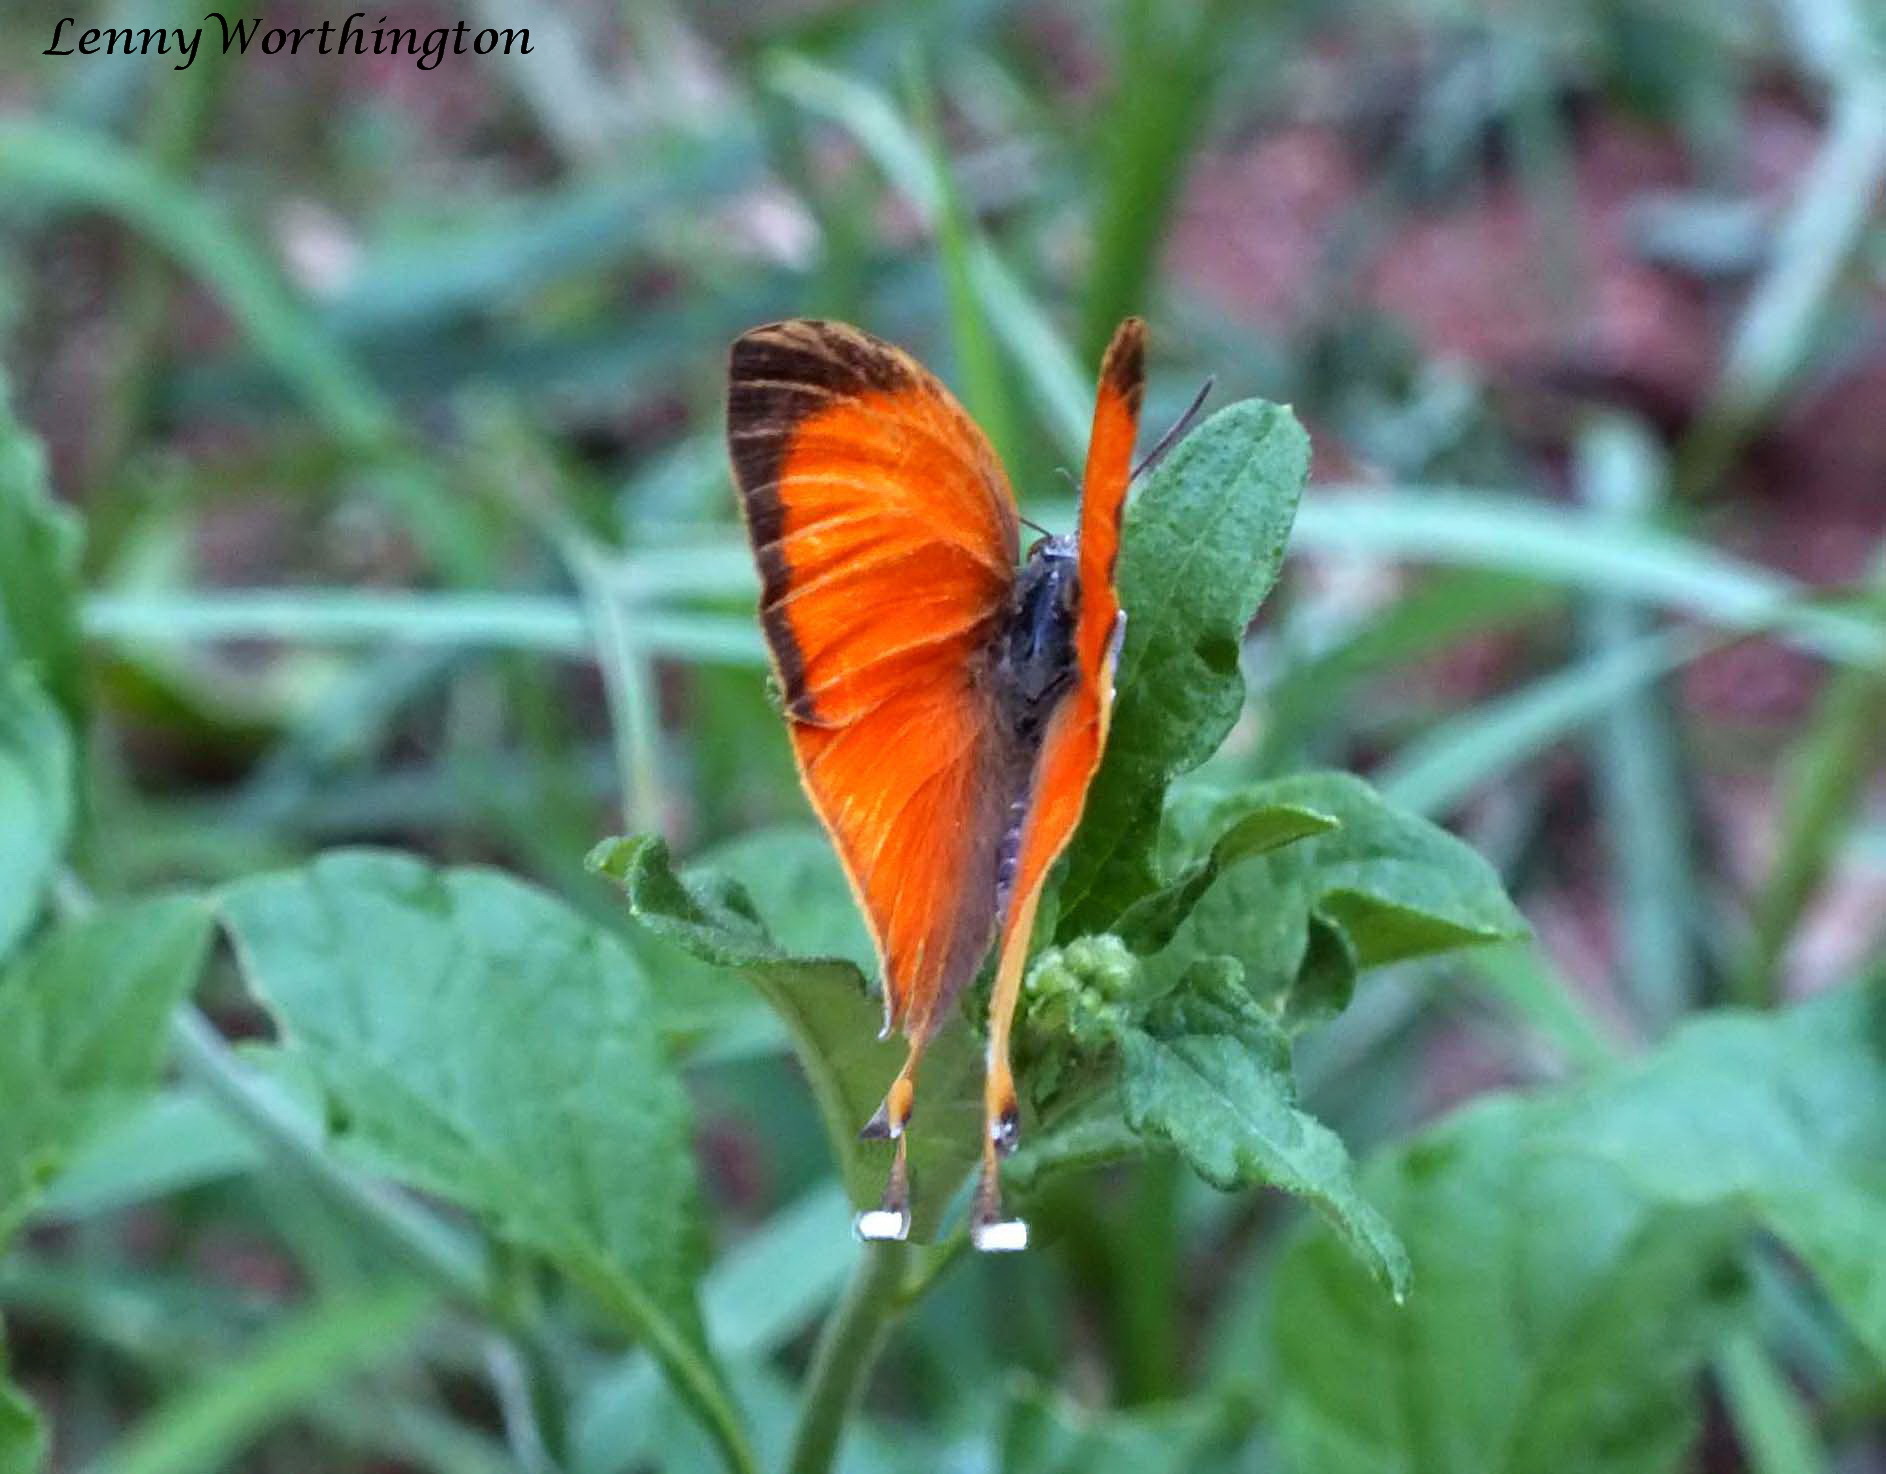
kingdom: Animalia
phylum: Arthropoda
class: Insecta
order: Lepidoptera
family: Lycaenidae
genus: Loxura
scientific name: Loxura atymnus
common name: Common yamfly
